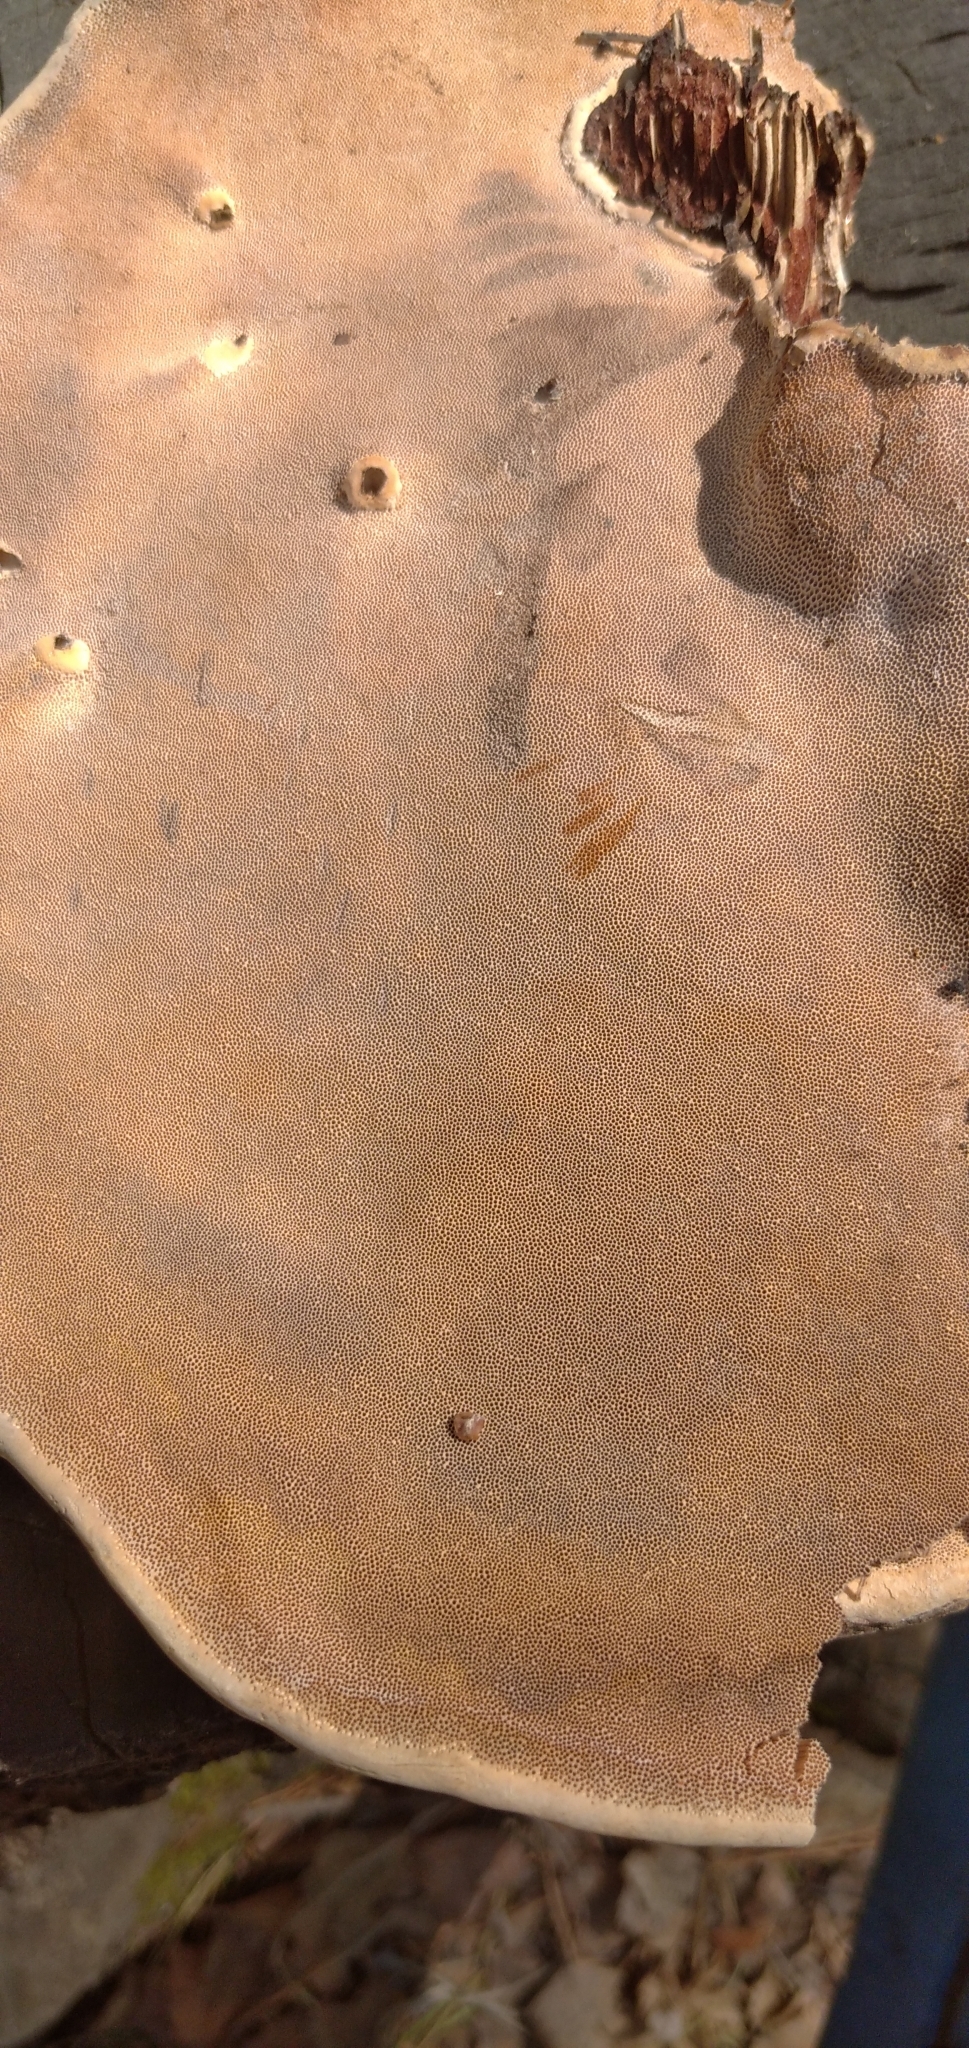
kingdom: Fungi
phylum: Basidiomycota
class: Agaricomycetes
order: Polyporales
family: Fomitopsidaceae
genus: Fomitopsis
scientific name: Fomitopsis pinicola
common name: Red-belted bracket
